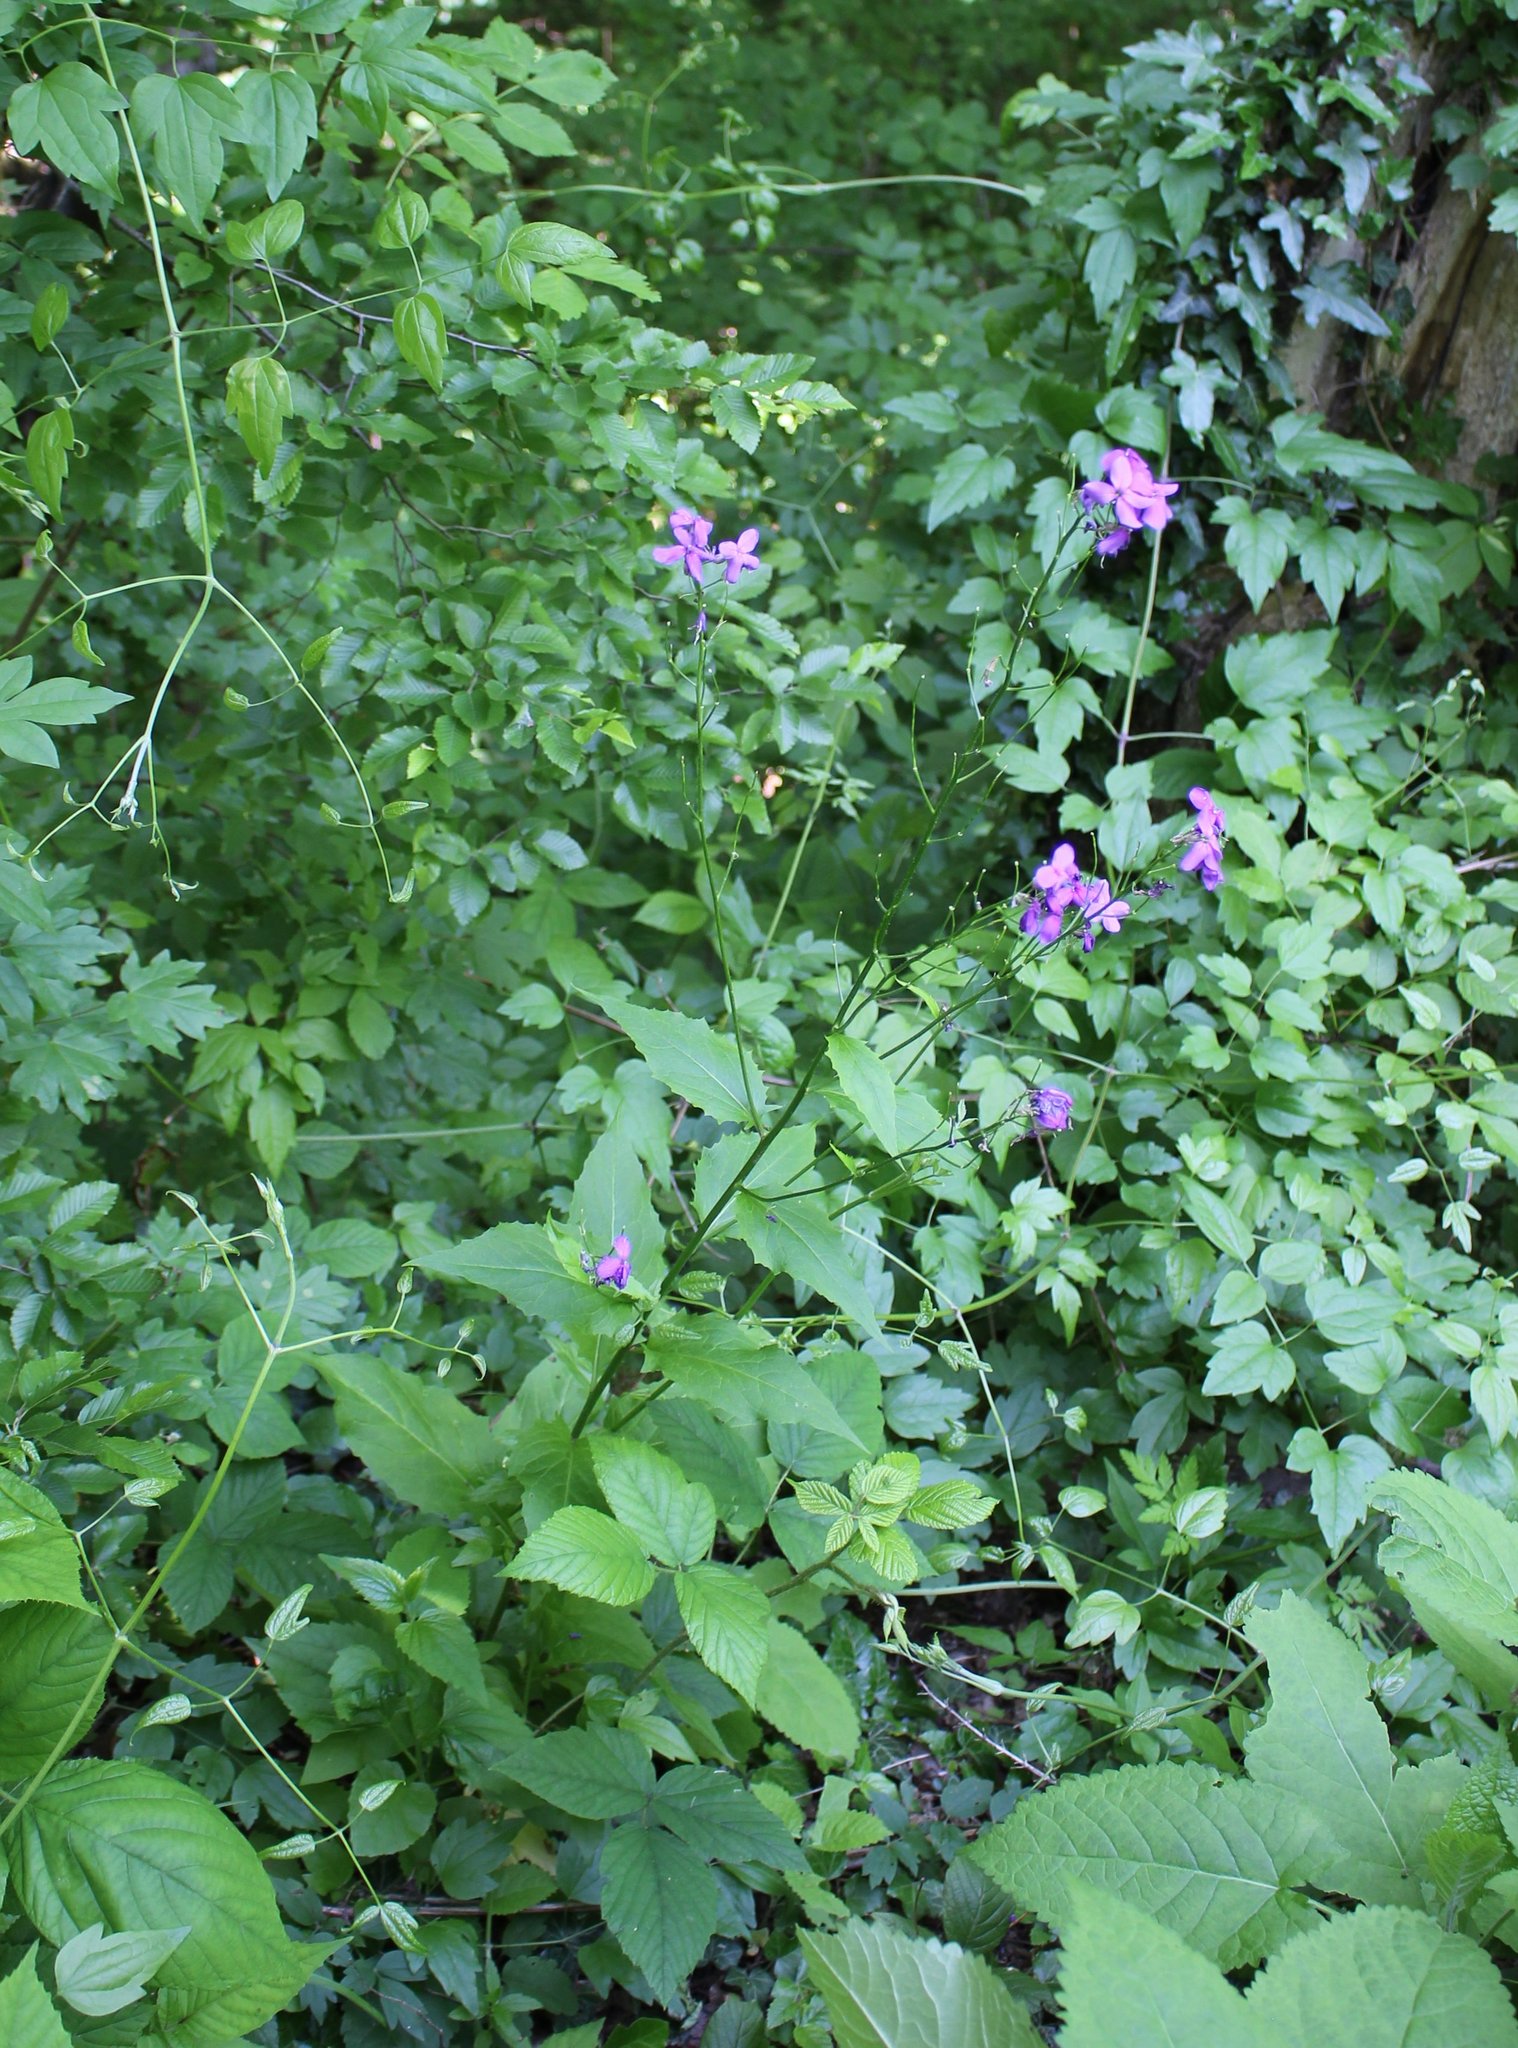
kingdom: Plantae
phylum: Tracheophyta
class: Magnoliopsida
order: Brassicales
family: Brassicaceae
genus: Hesperis
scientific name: Hesperis matronalis
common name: Dame's-violet
